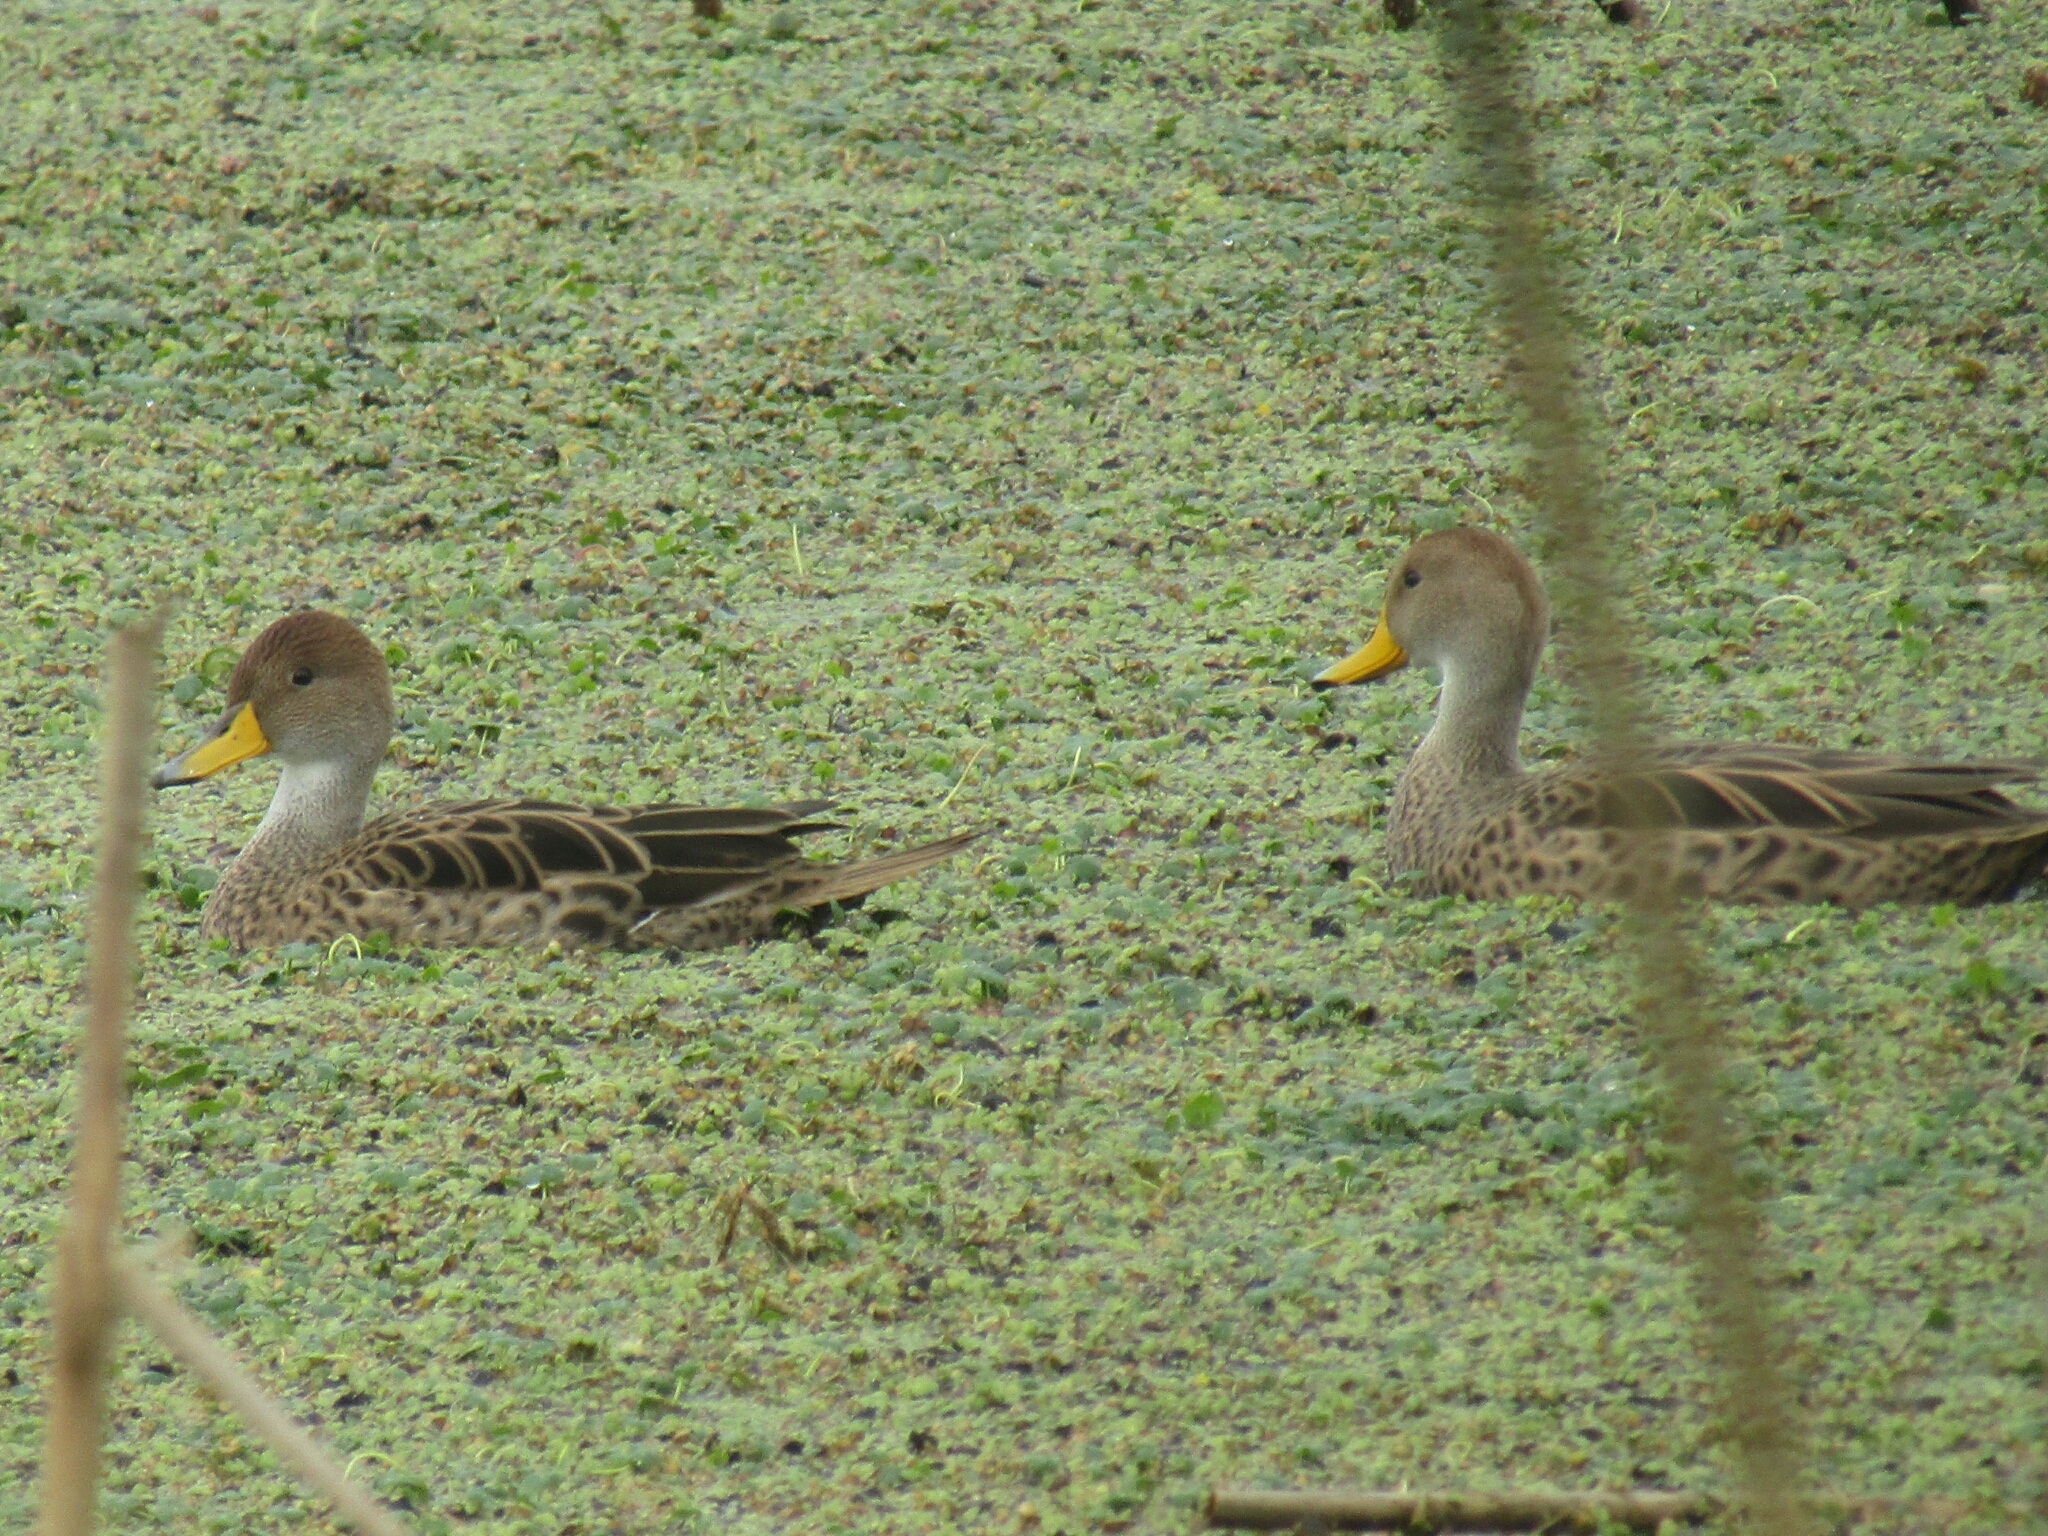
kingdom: Animalia
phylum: Chordata
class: Aves
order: Anseriformes
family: Anatidae
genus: Anas
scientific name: Anas georgica
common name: Yellow-billed pintail
